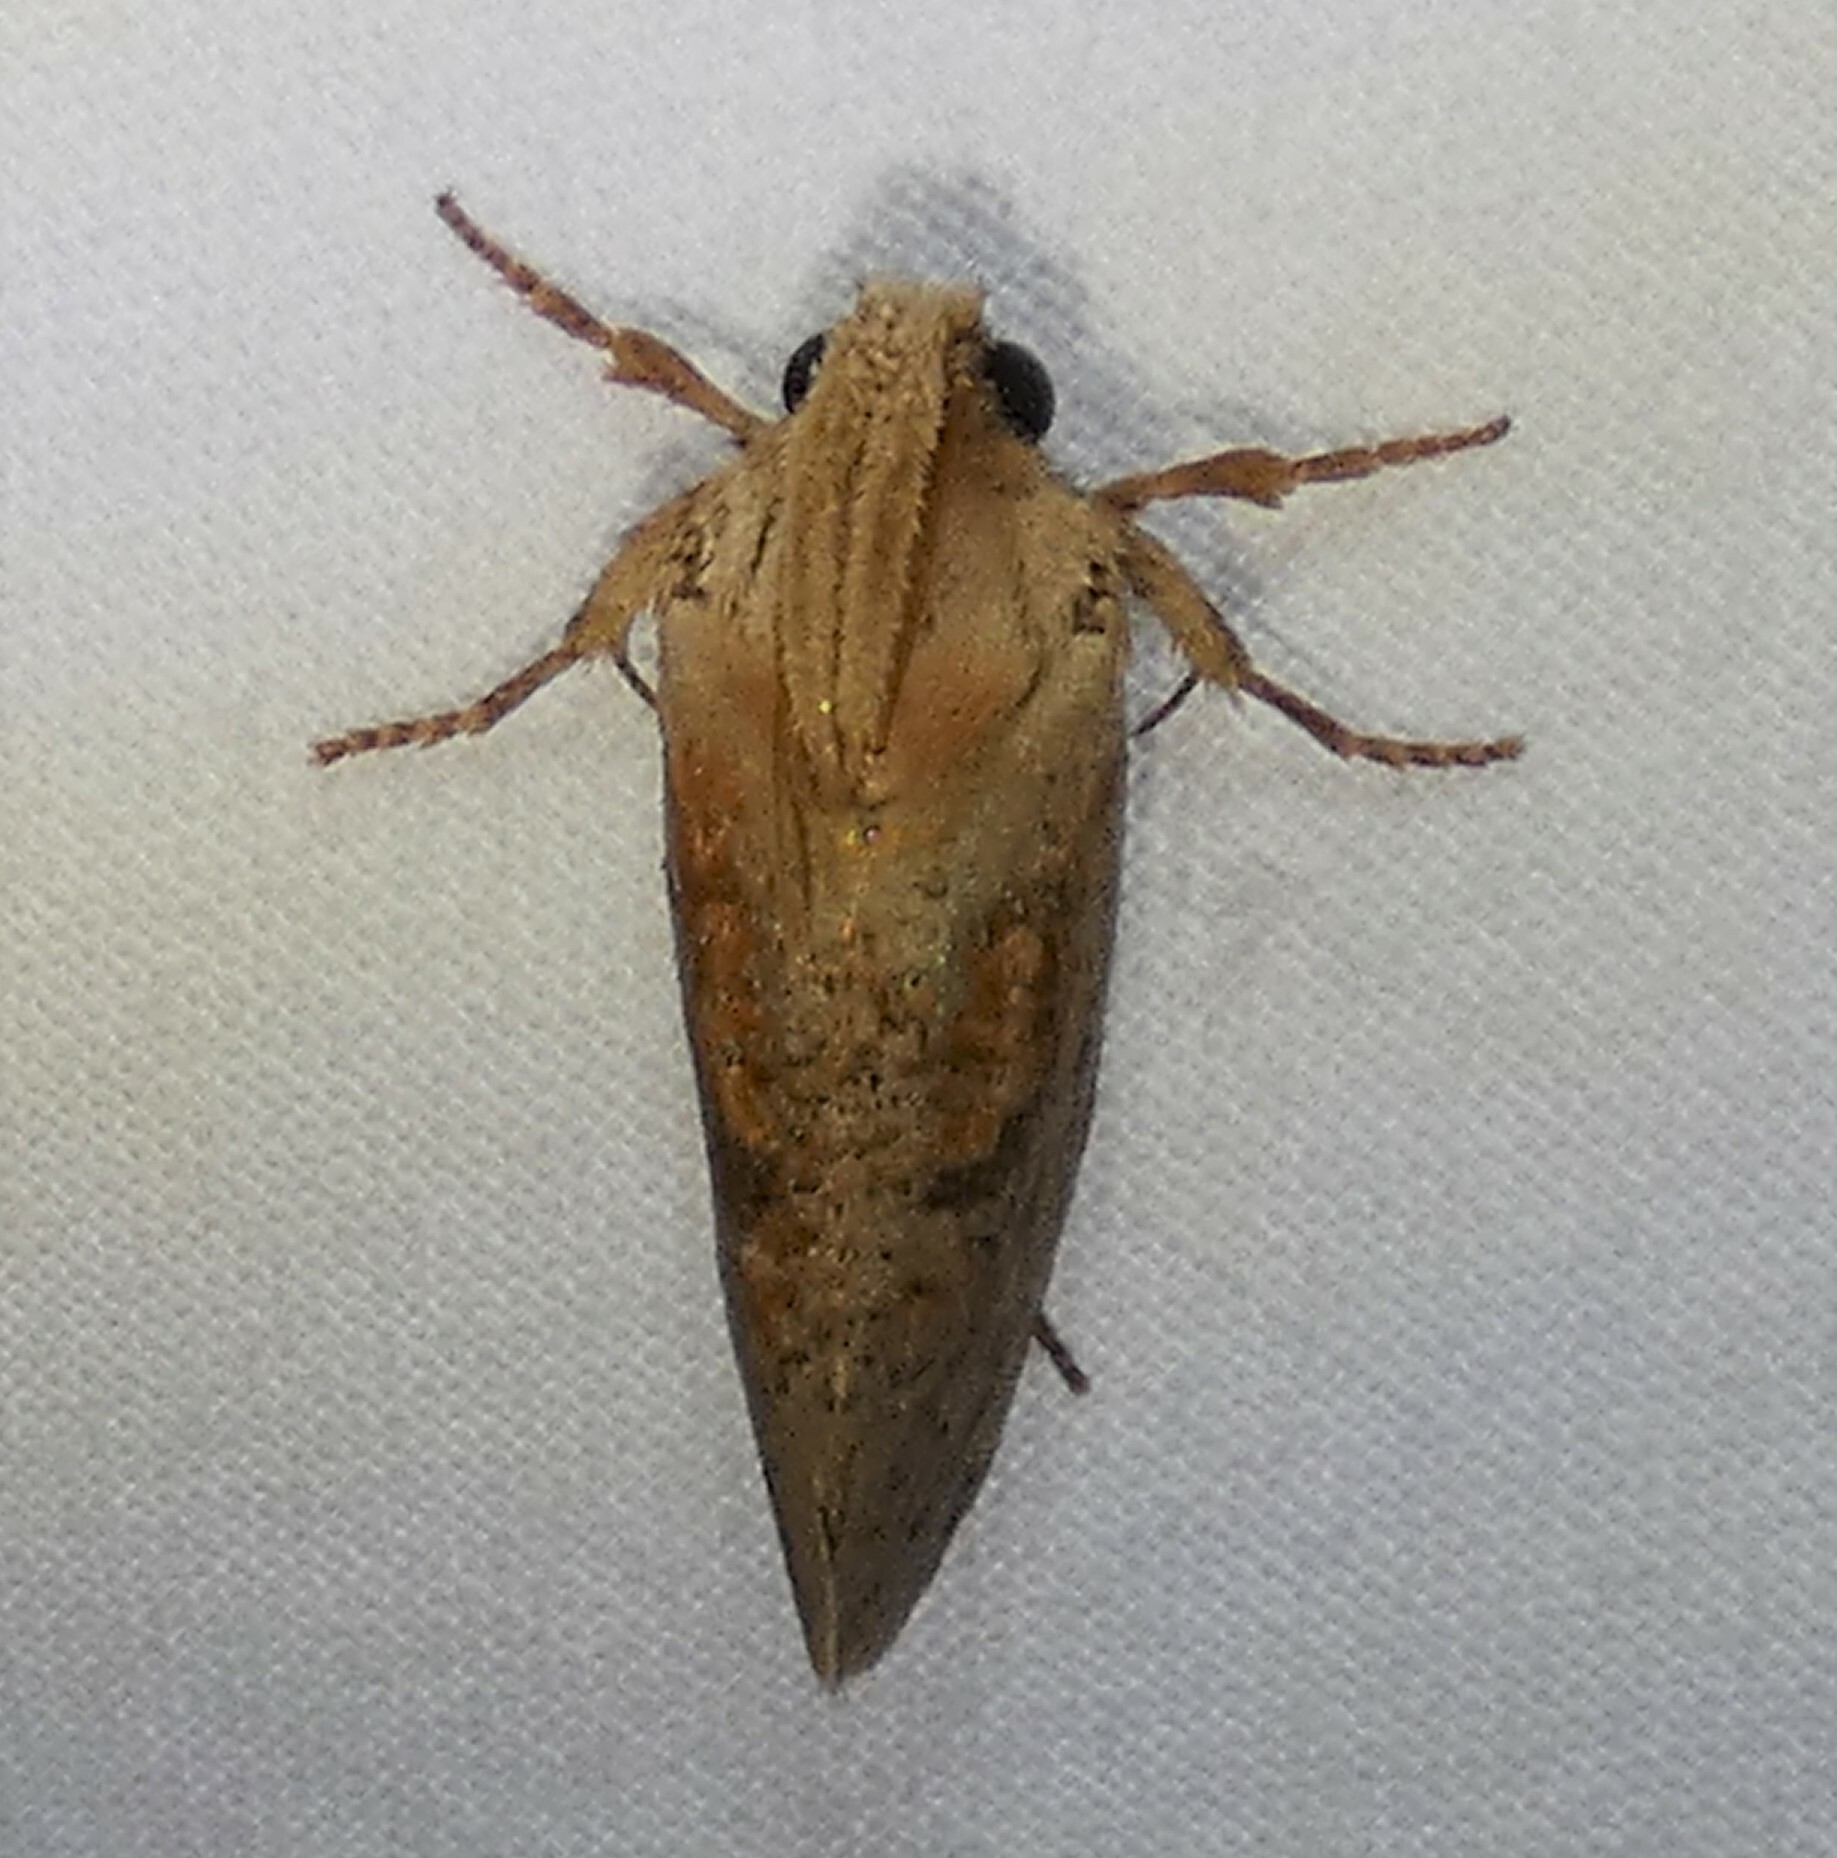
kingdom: Animalia
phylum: Arthropoda
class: Insecta
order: Lepidoptera
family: Tineidae
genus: Acrolophus
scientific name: Acrolophus plumifrontella
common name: Eastern grass tubeworm moth
